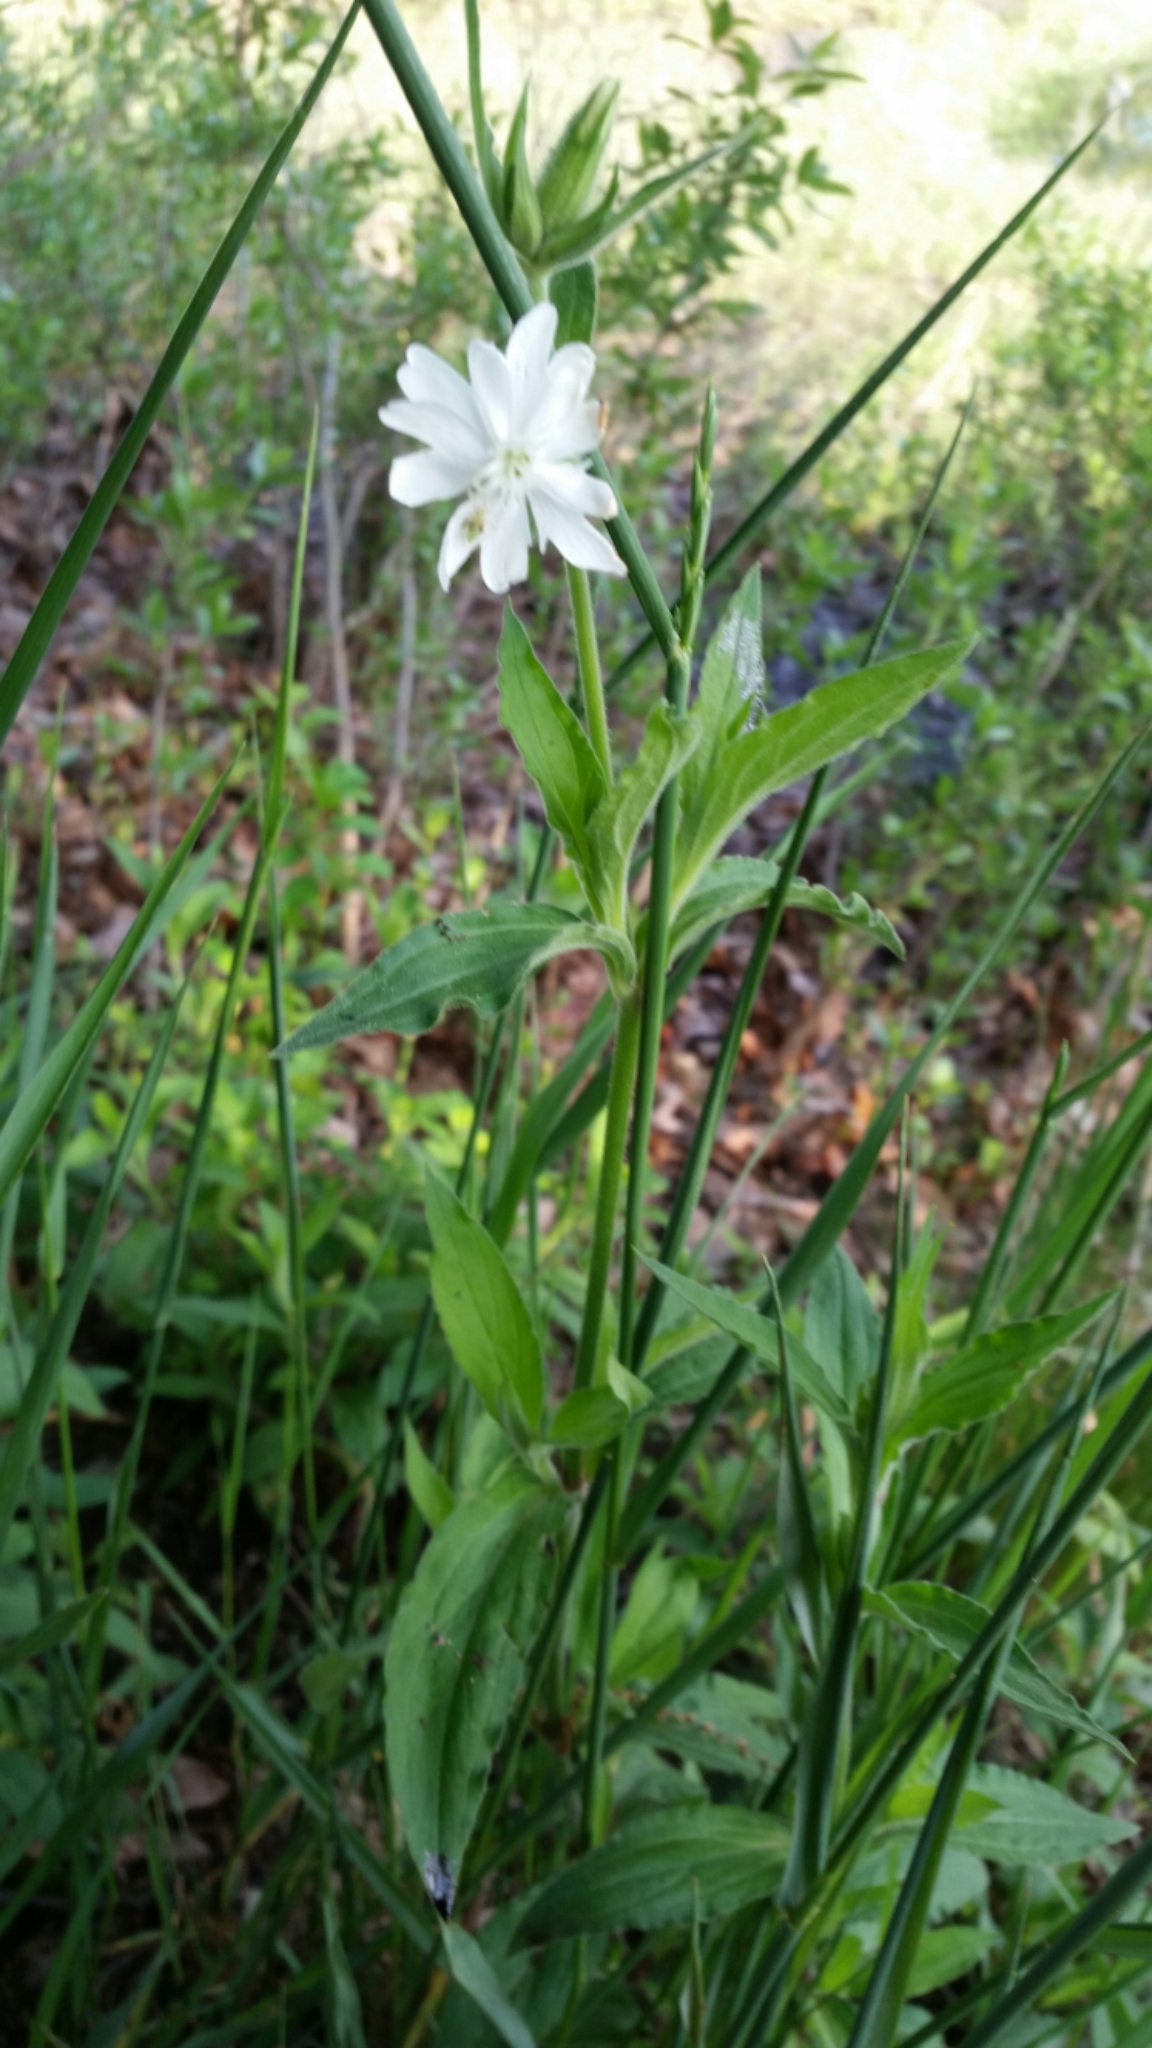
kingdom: Plantae
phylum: Tracheophyta
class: Magnoliopsida
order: Caryophyllales
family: Caryophyllaceae
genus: Silene
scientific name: Silene latifolia
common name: White campion
